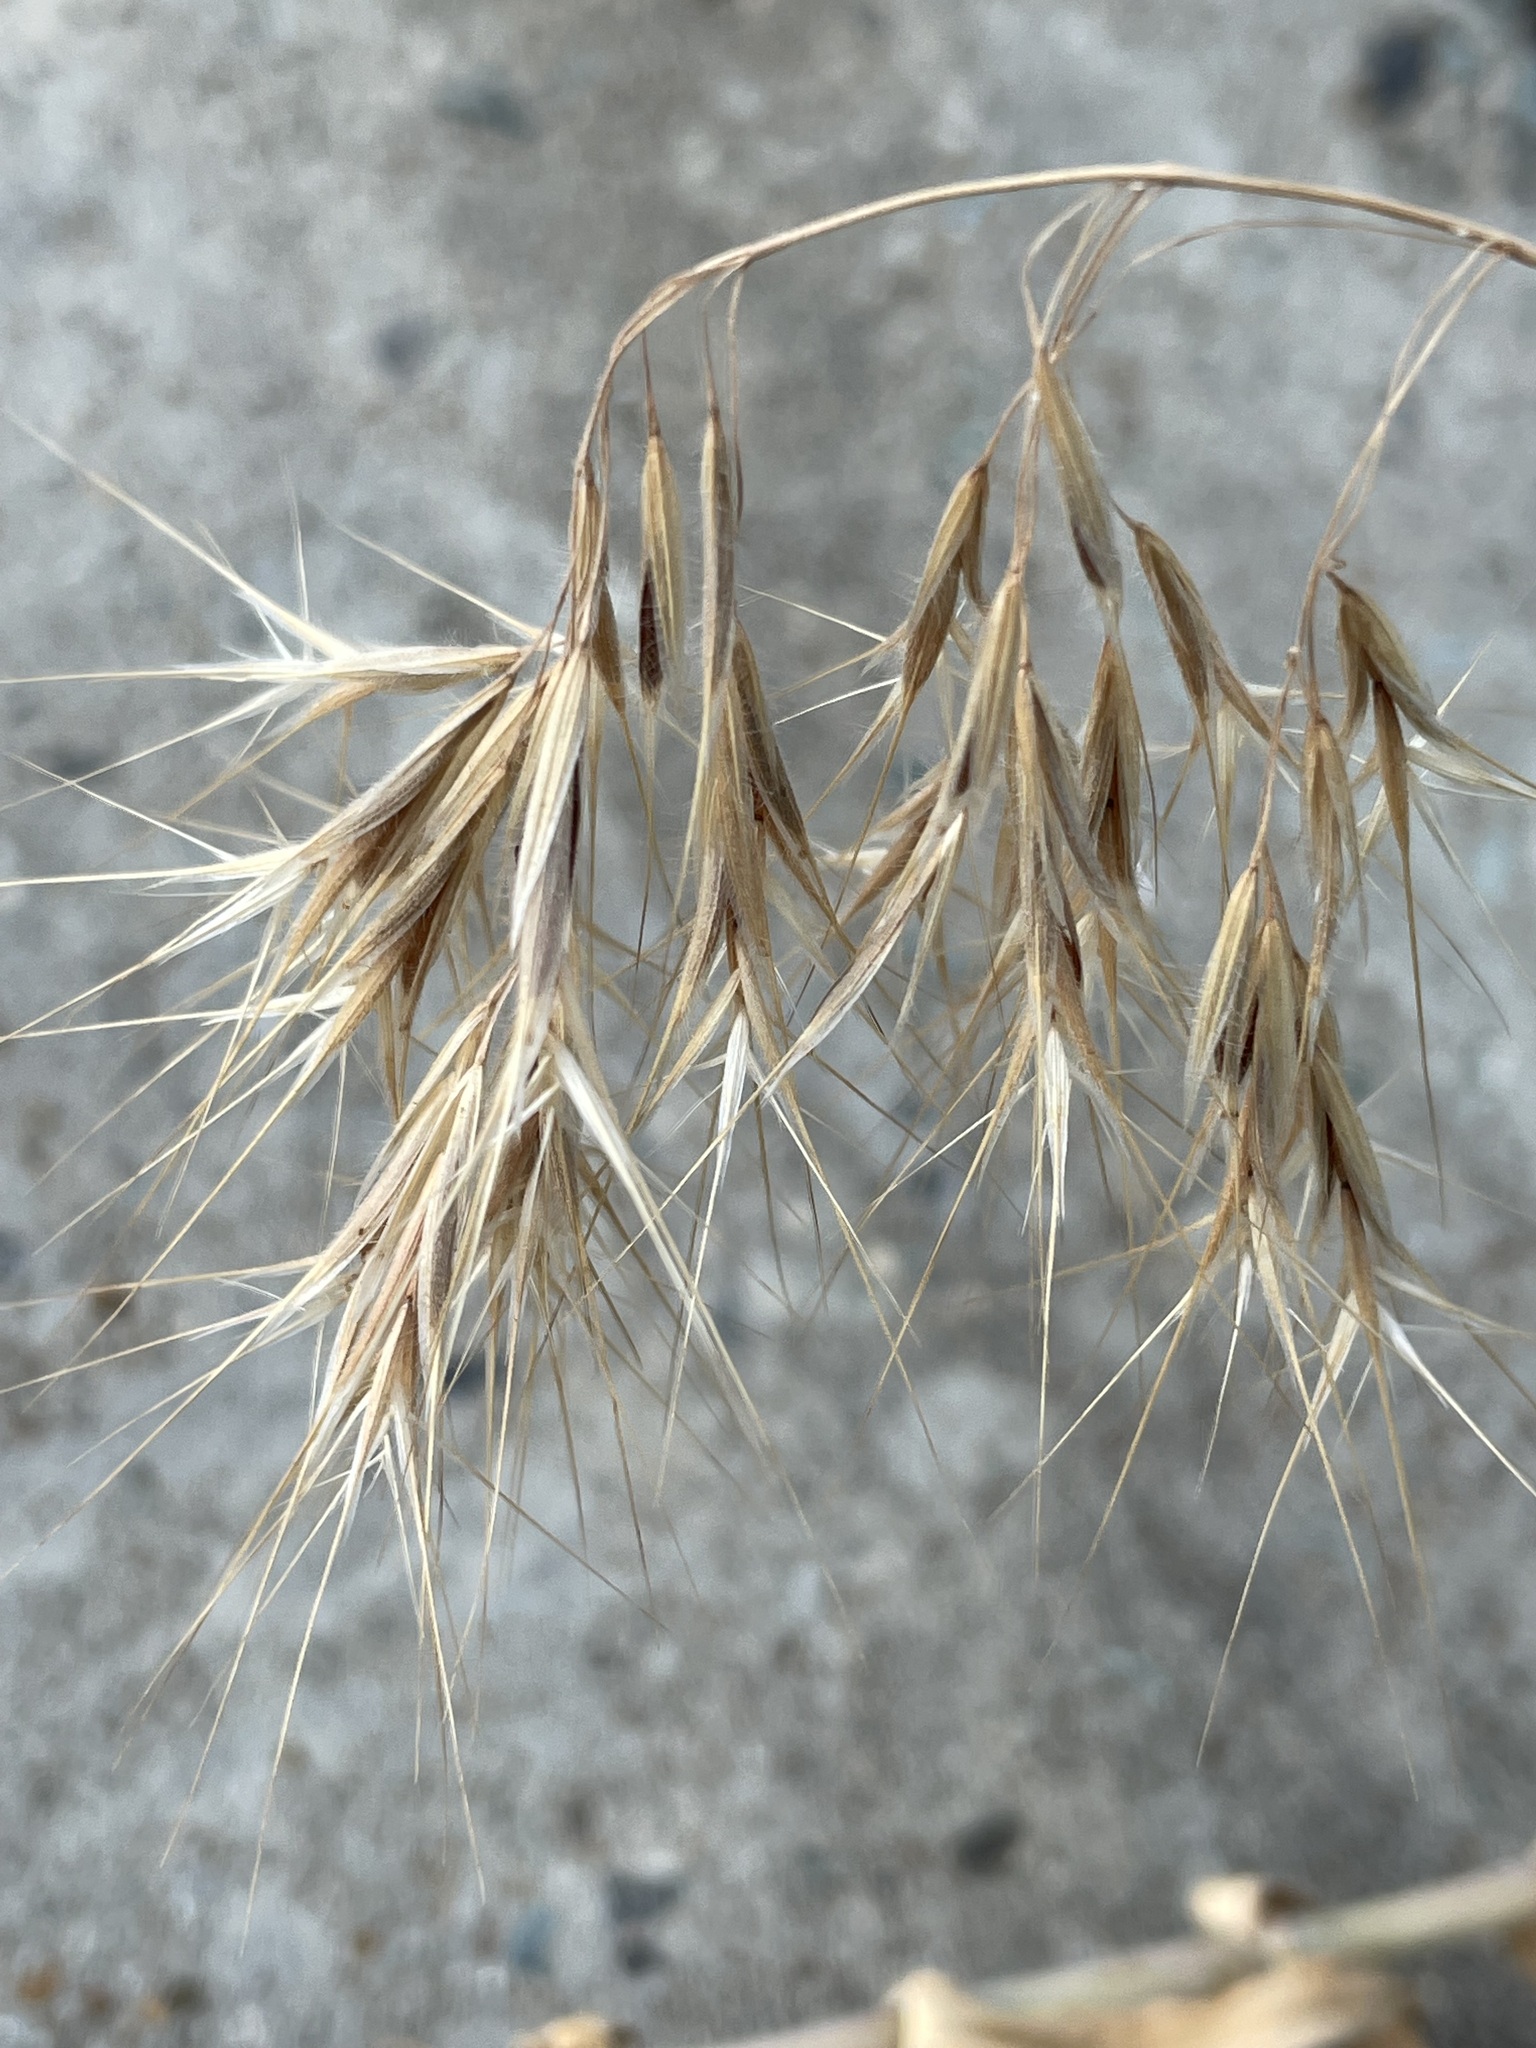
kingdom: Plantae
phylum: Tracheophyta
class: Liliopsida
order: Poales
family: Poaceae
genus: Bromus
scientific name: Bromus tectorum
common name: Cheatgrass
